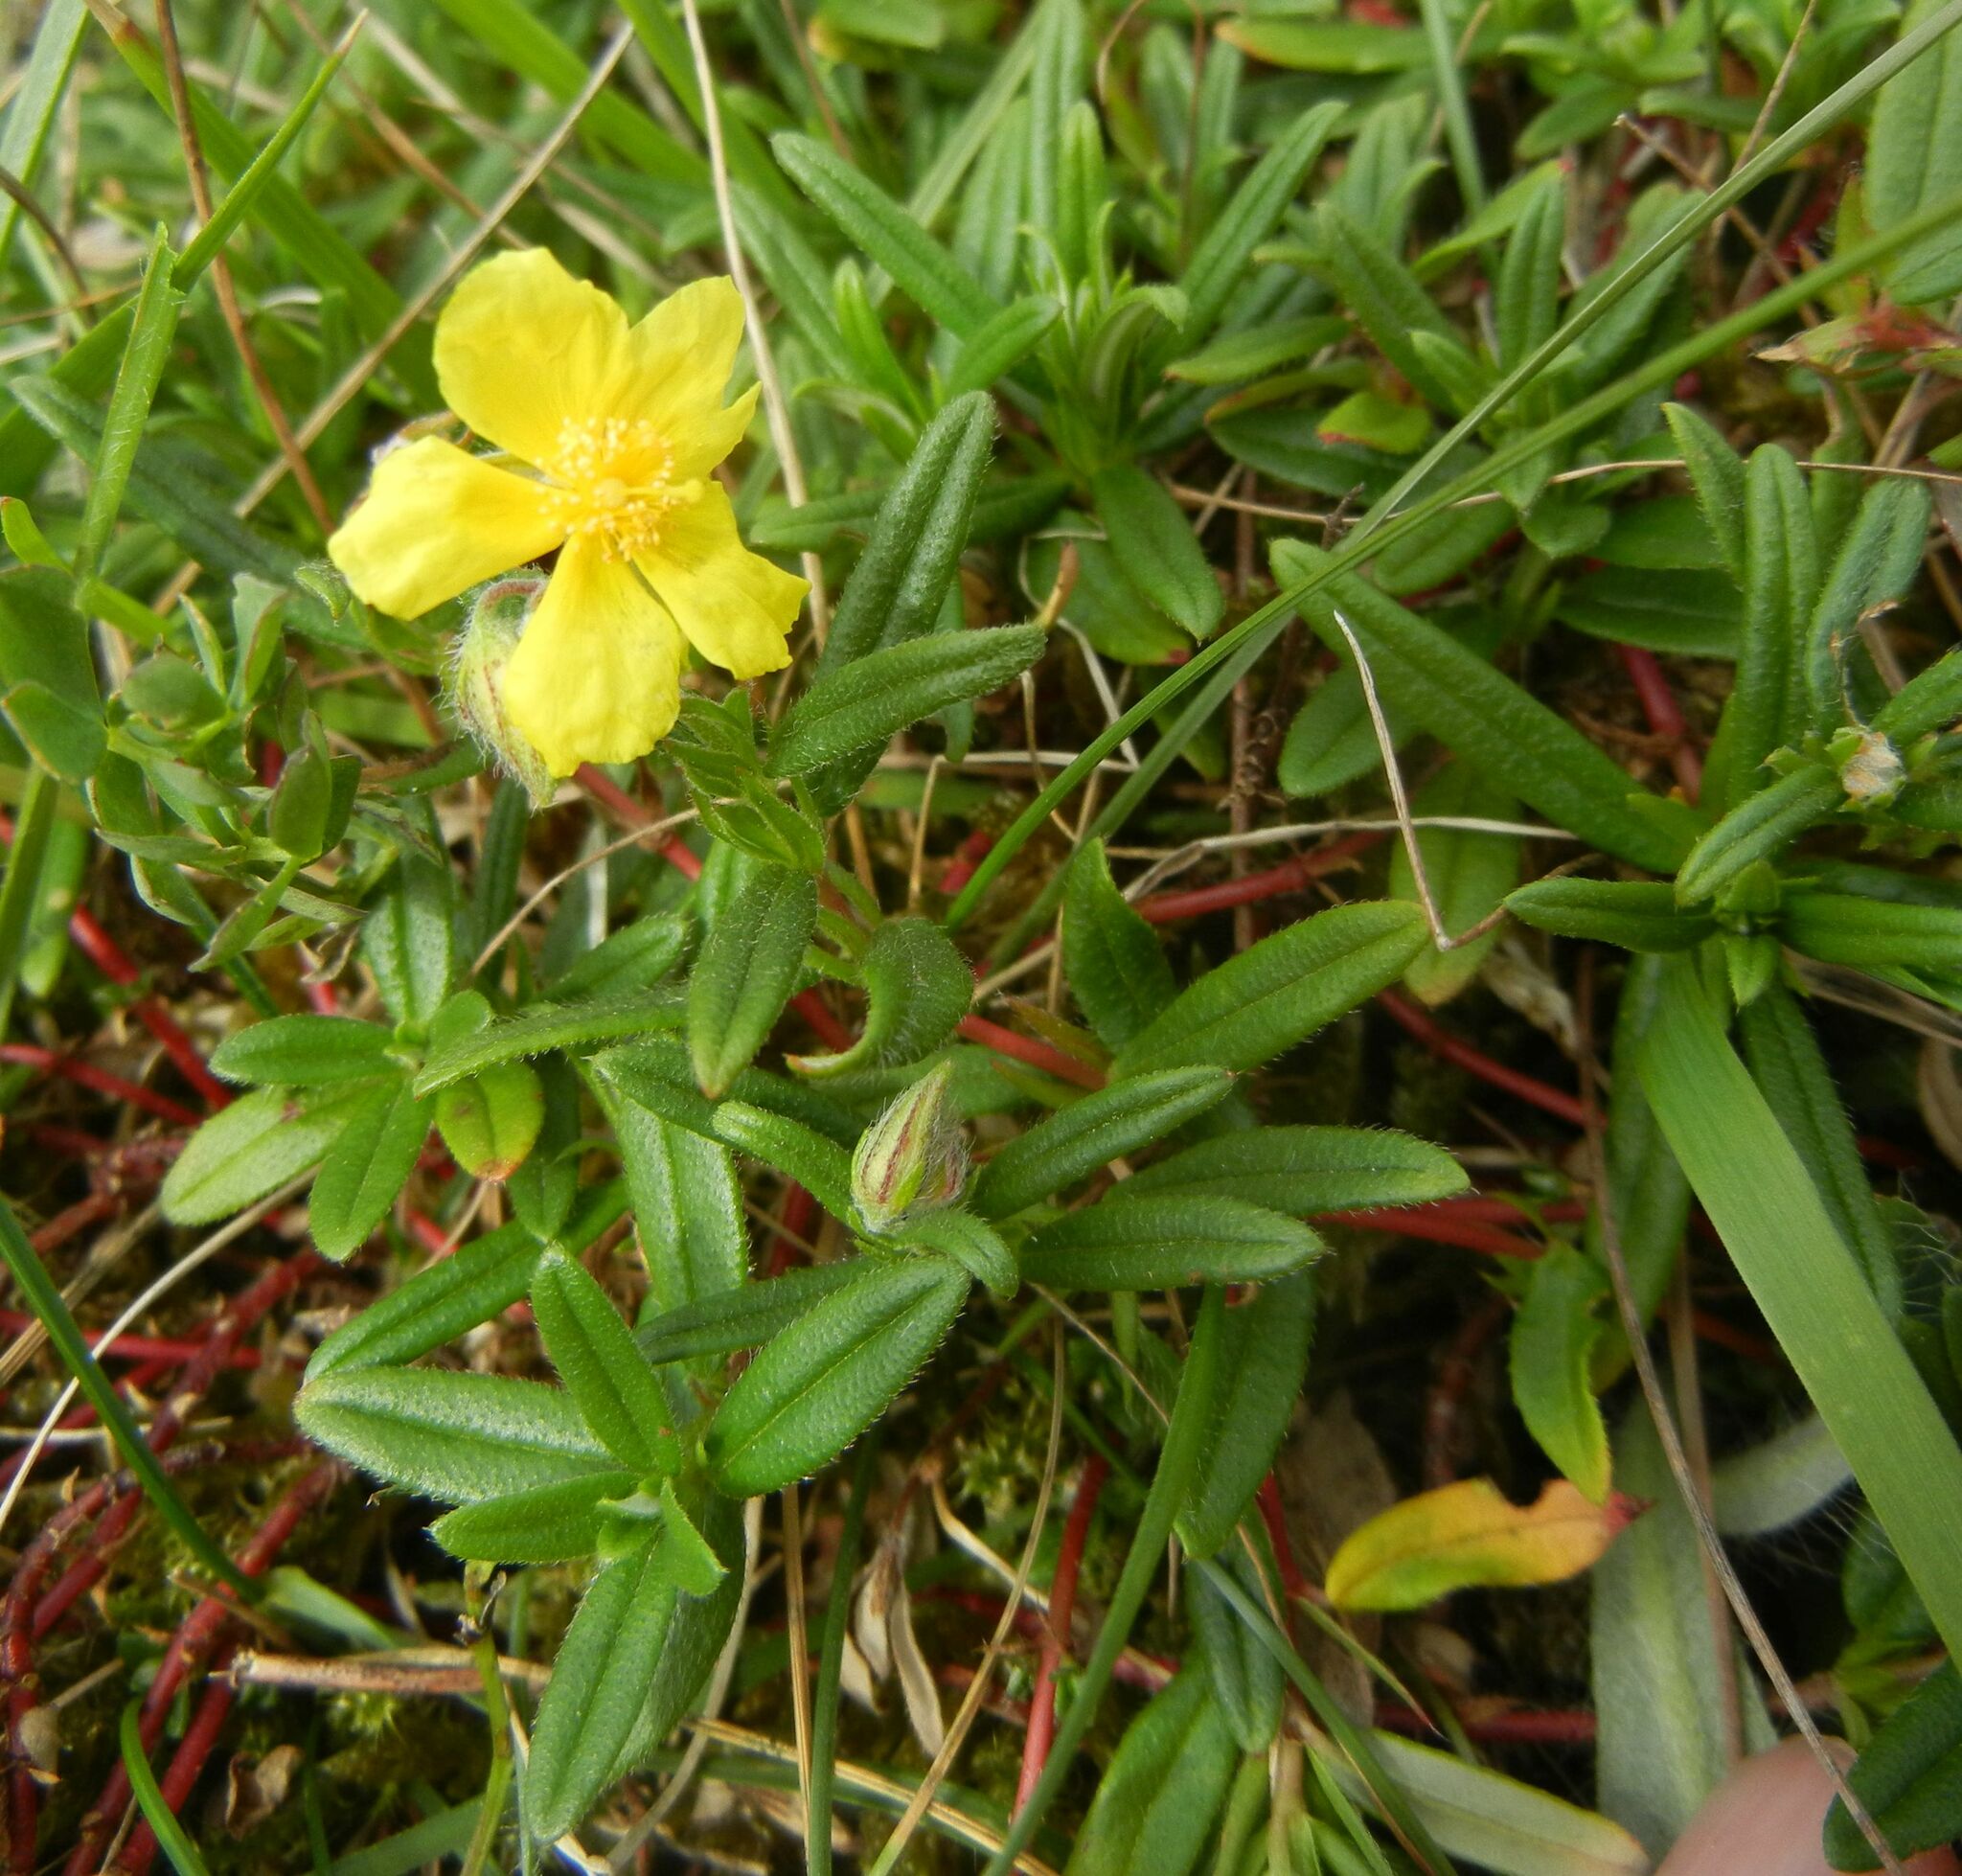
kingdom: Plantae
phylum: Tracheophyta
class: Magnoliopsida
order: Malvales
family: Cistaceae
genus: Helianthemum
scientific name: Helianthemum nummularium
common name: Common rock-rose
